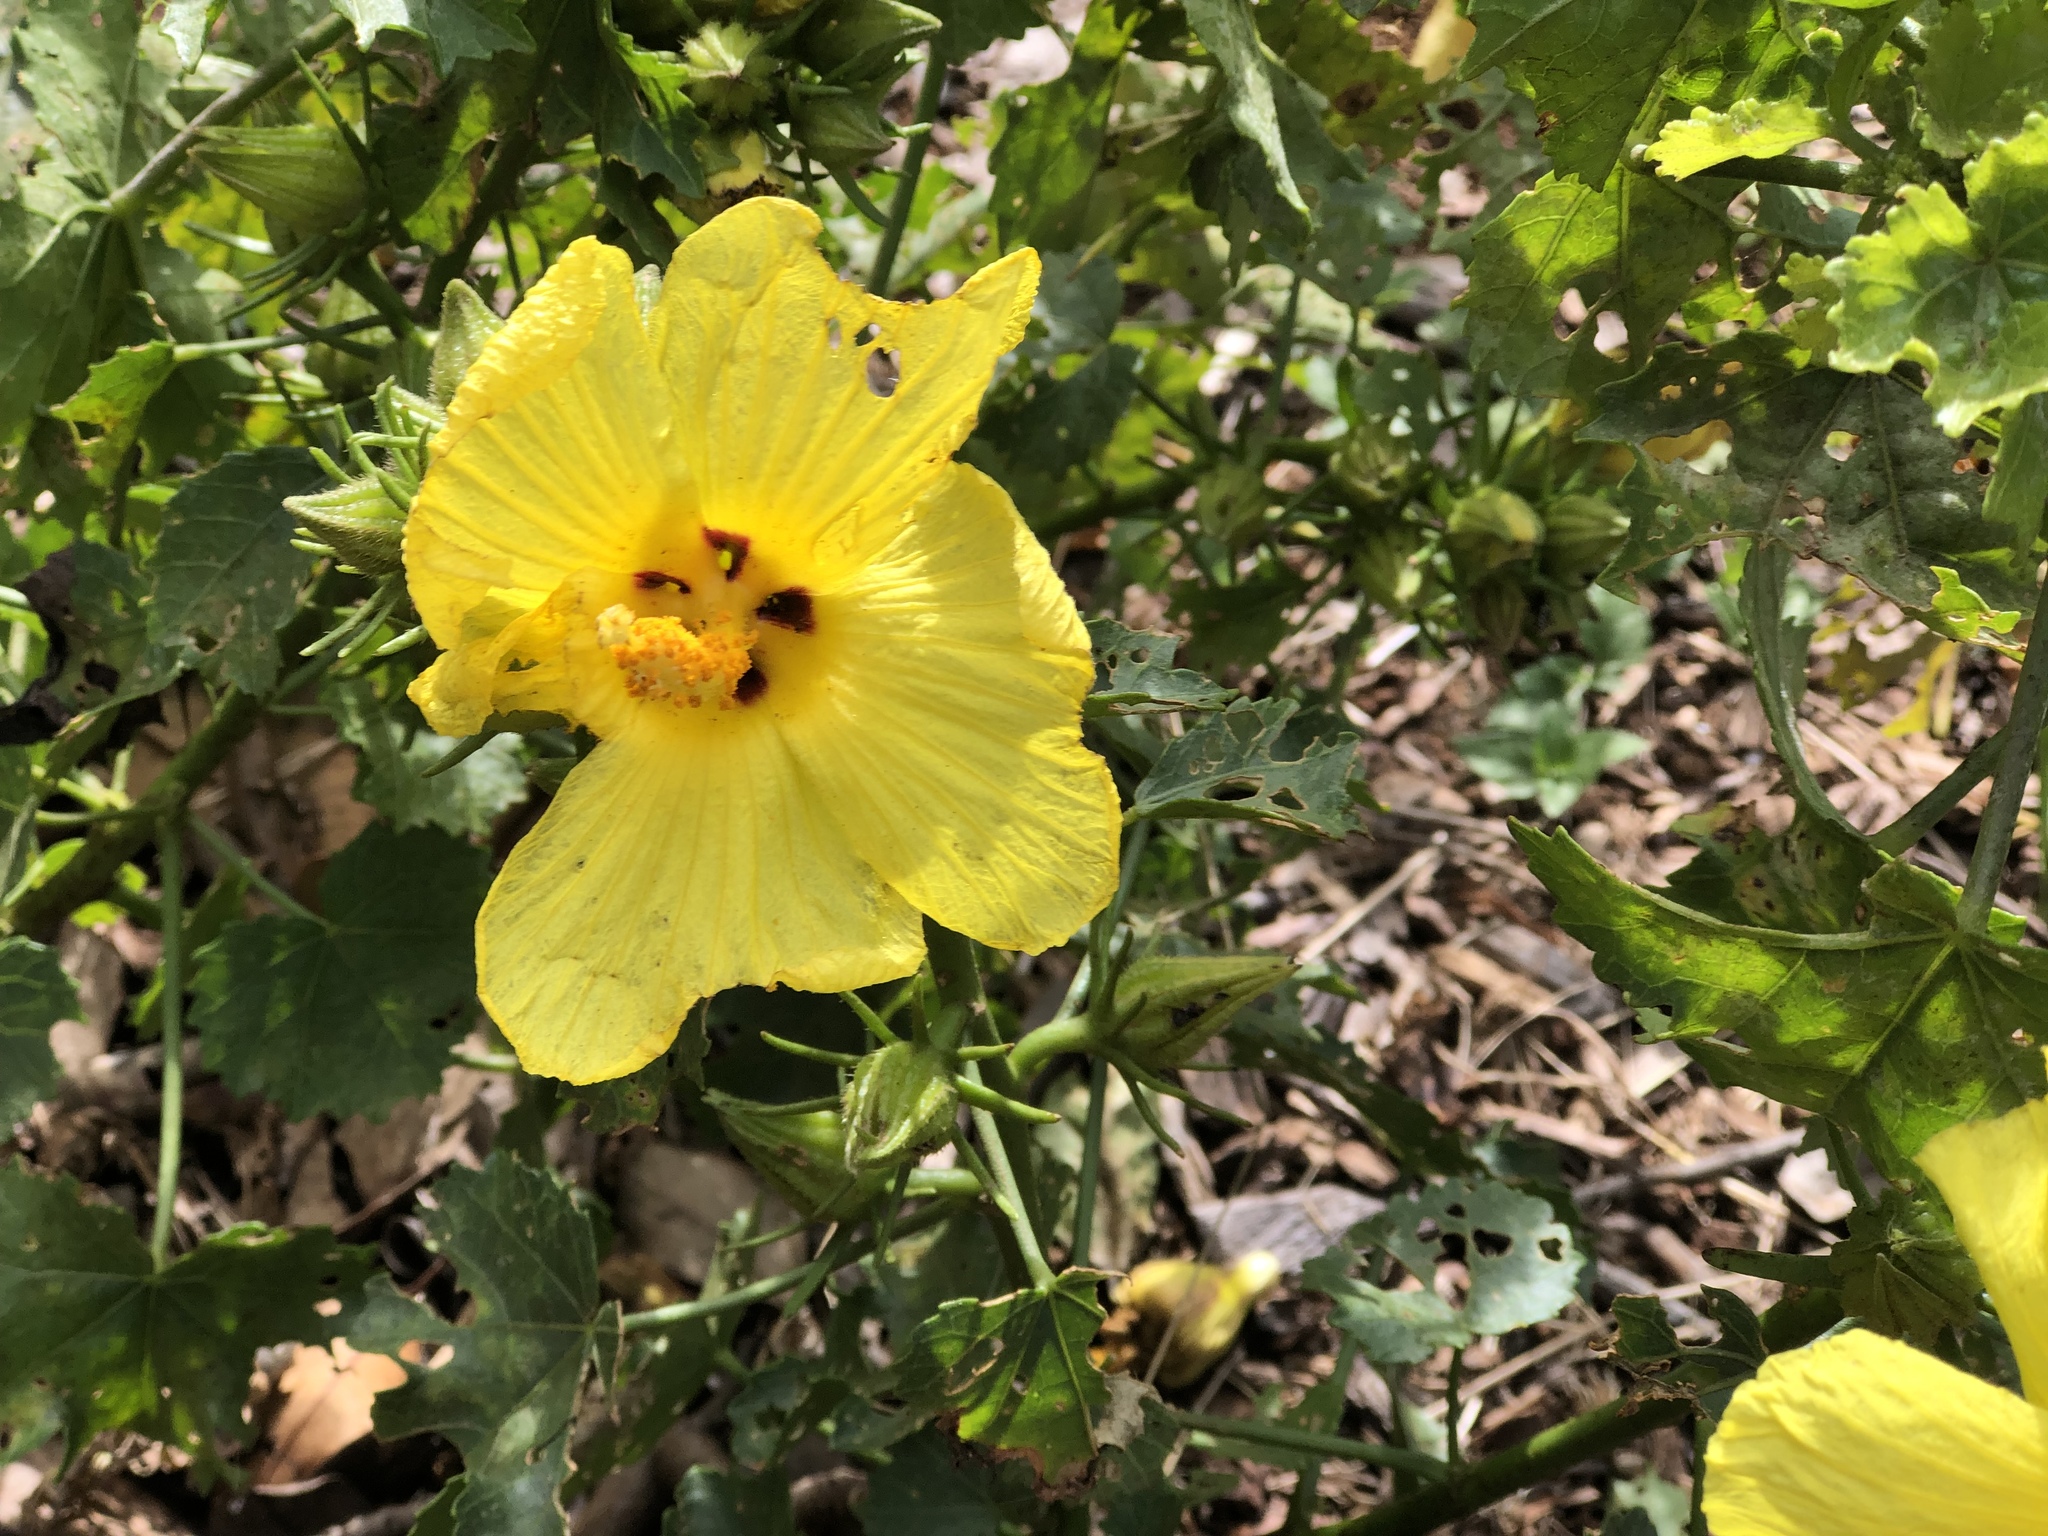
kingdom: Plantae
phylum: Tracheophyta
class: Magnoliopsida
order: Malvales
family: Malvaceae
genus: Hibiscus
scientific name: Hibiscus brackenridgei
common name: Native yellow hibiscus
